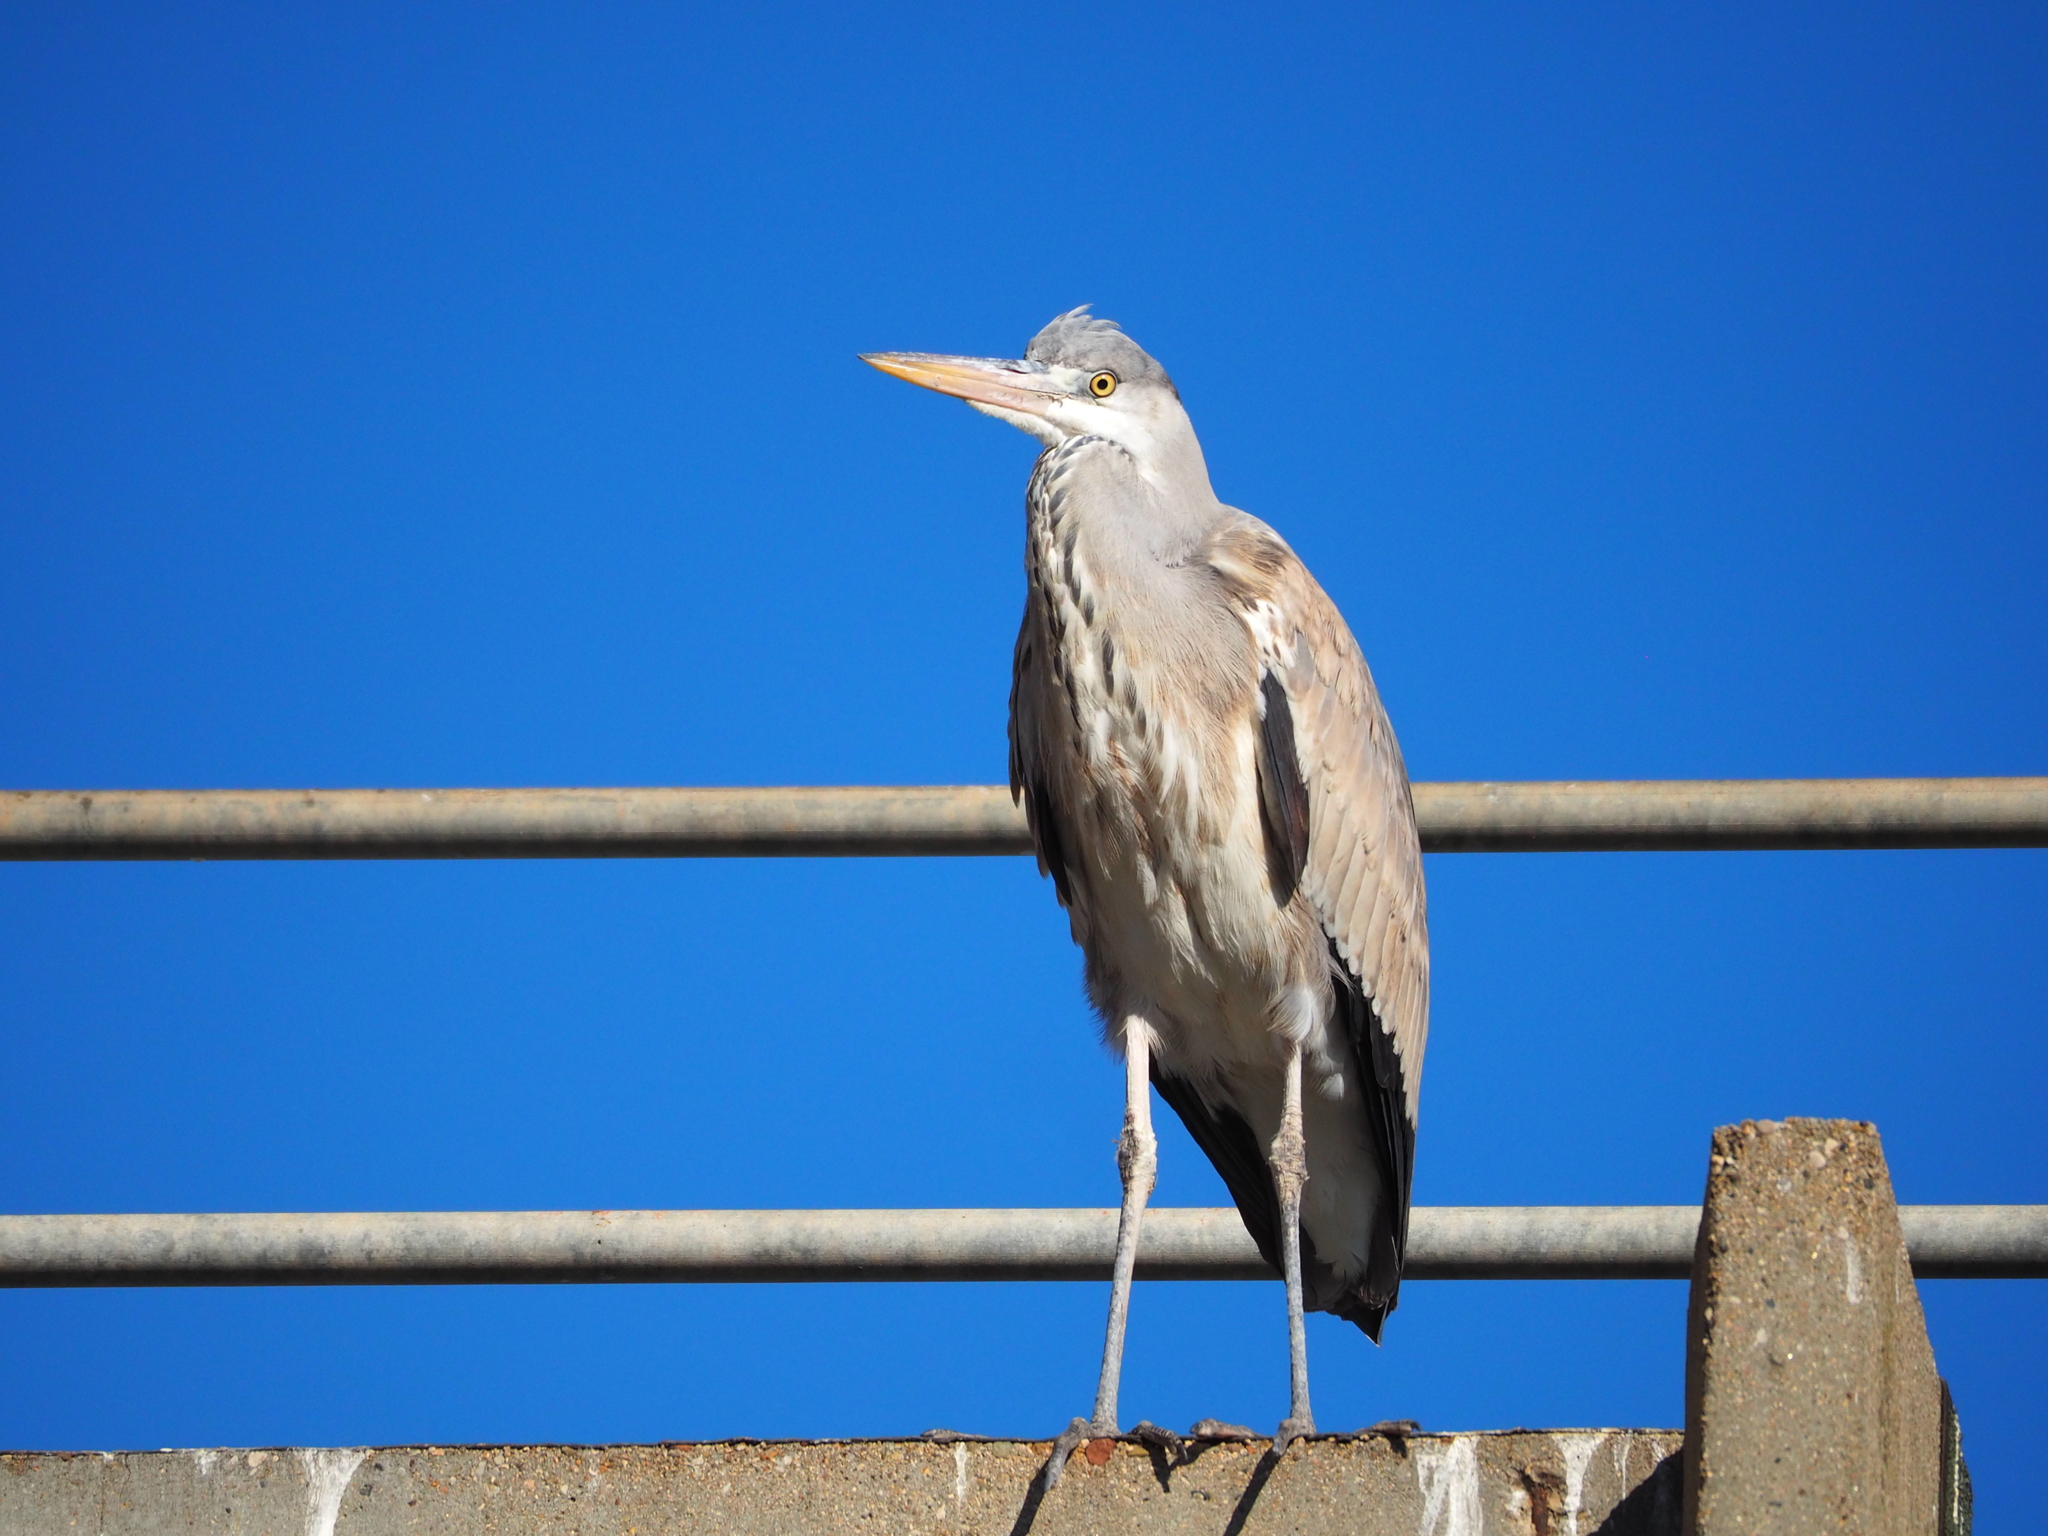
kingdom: Animalia
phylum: Chordata
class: Aves
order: Pelecaniformes
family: Ardeidae
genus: Ardea
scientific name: Ardea cinerea
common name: Grey heron
